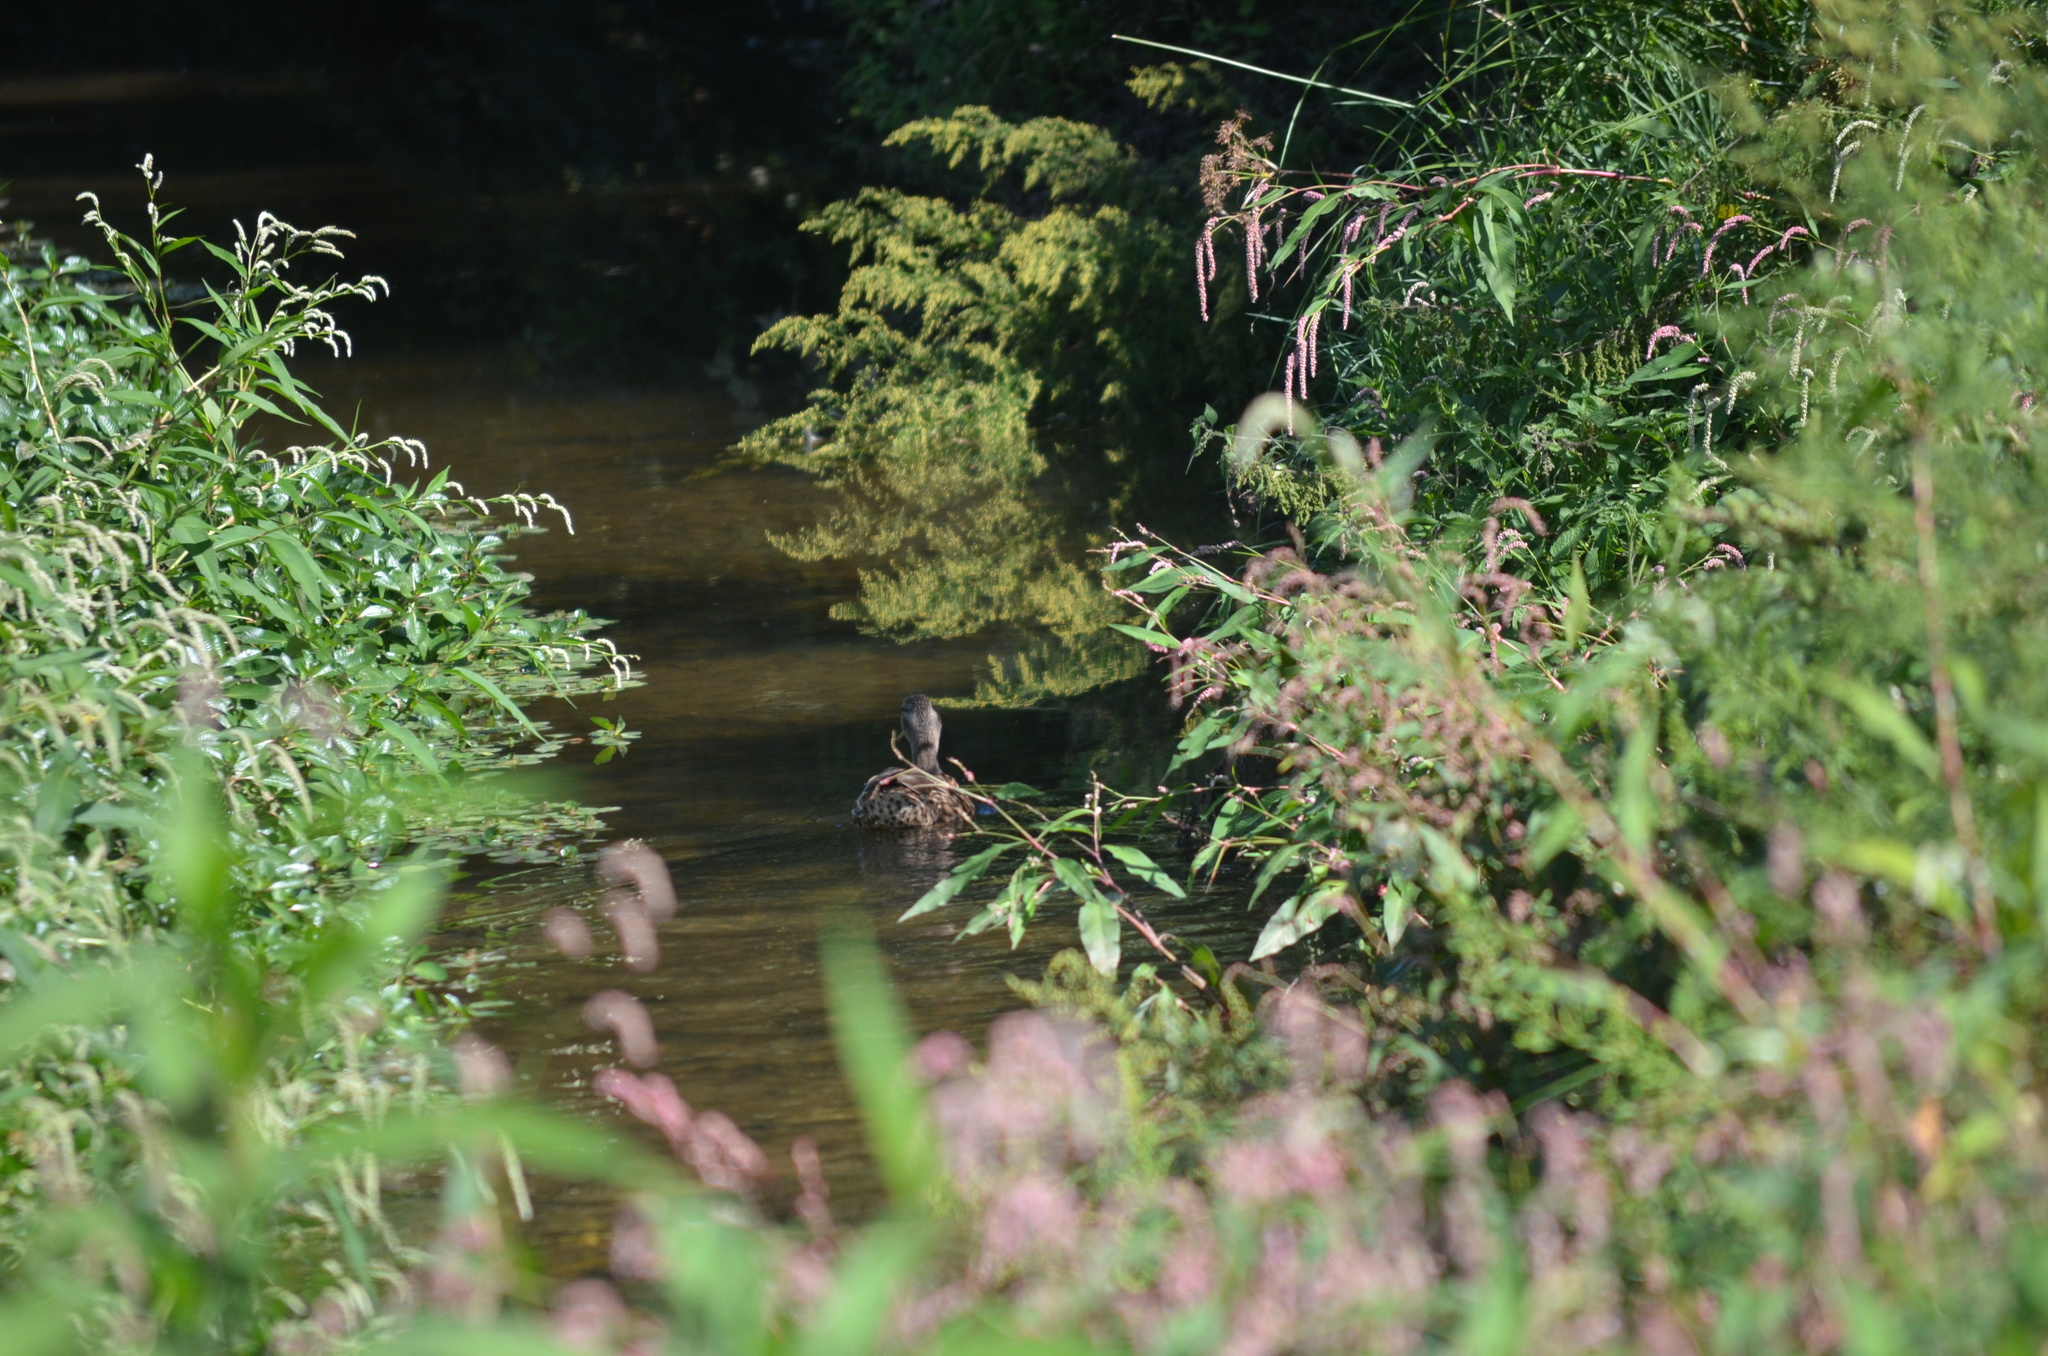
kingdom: Animalia
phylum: Chordata
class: Aves
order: Anseriformes
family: Anatidae
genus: Anas
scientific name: Anas platyrhynchos
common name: Mallard
